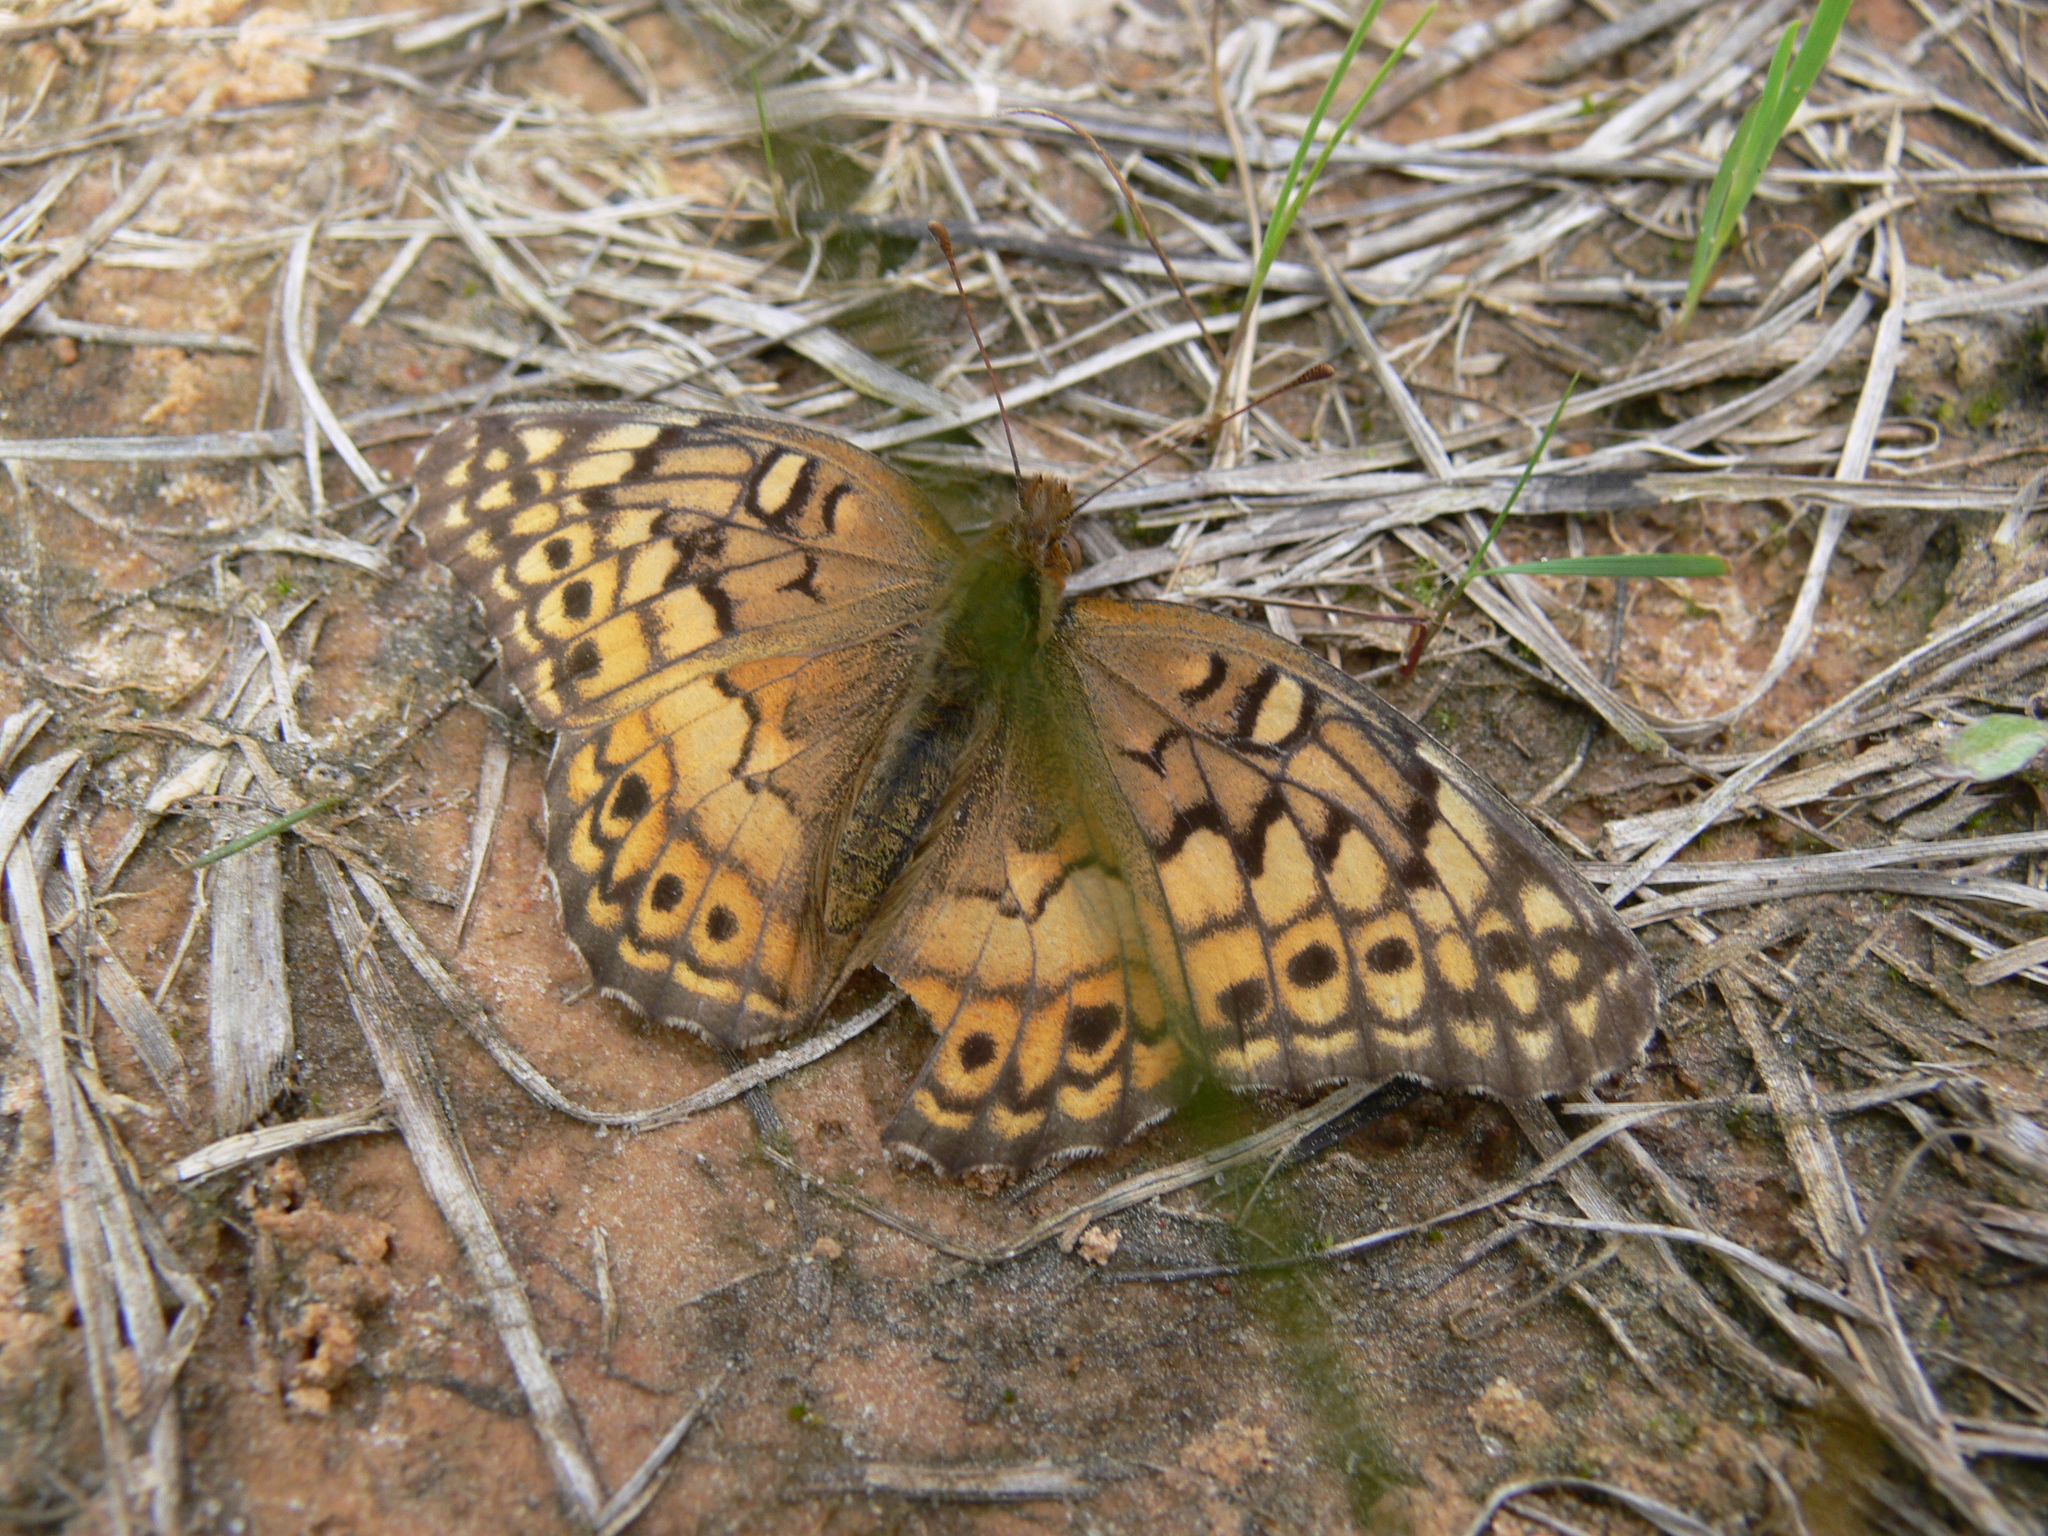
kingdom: Animalia
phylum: Arthropoda
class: Insecta
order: Lepidoptera
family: Nymphalidae
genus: Euptoieta
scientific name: Euptoieta claudia
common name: Variegated fritillary
